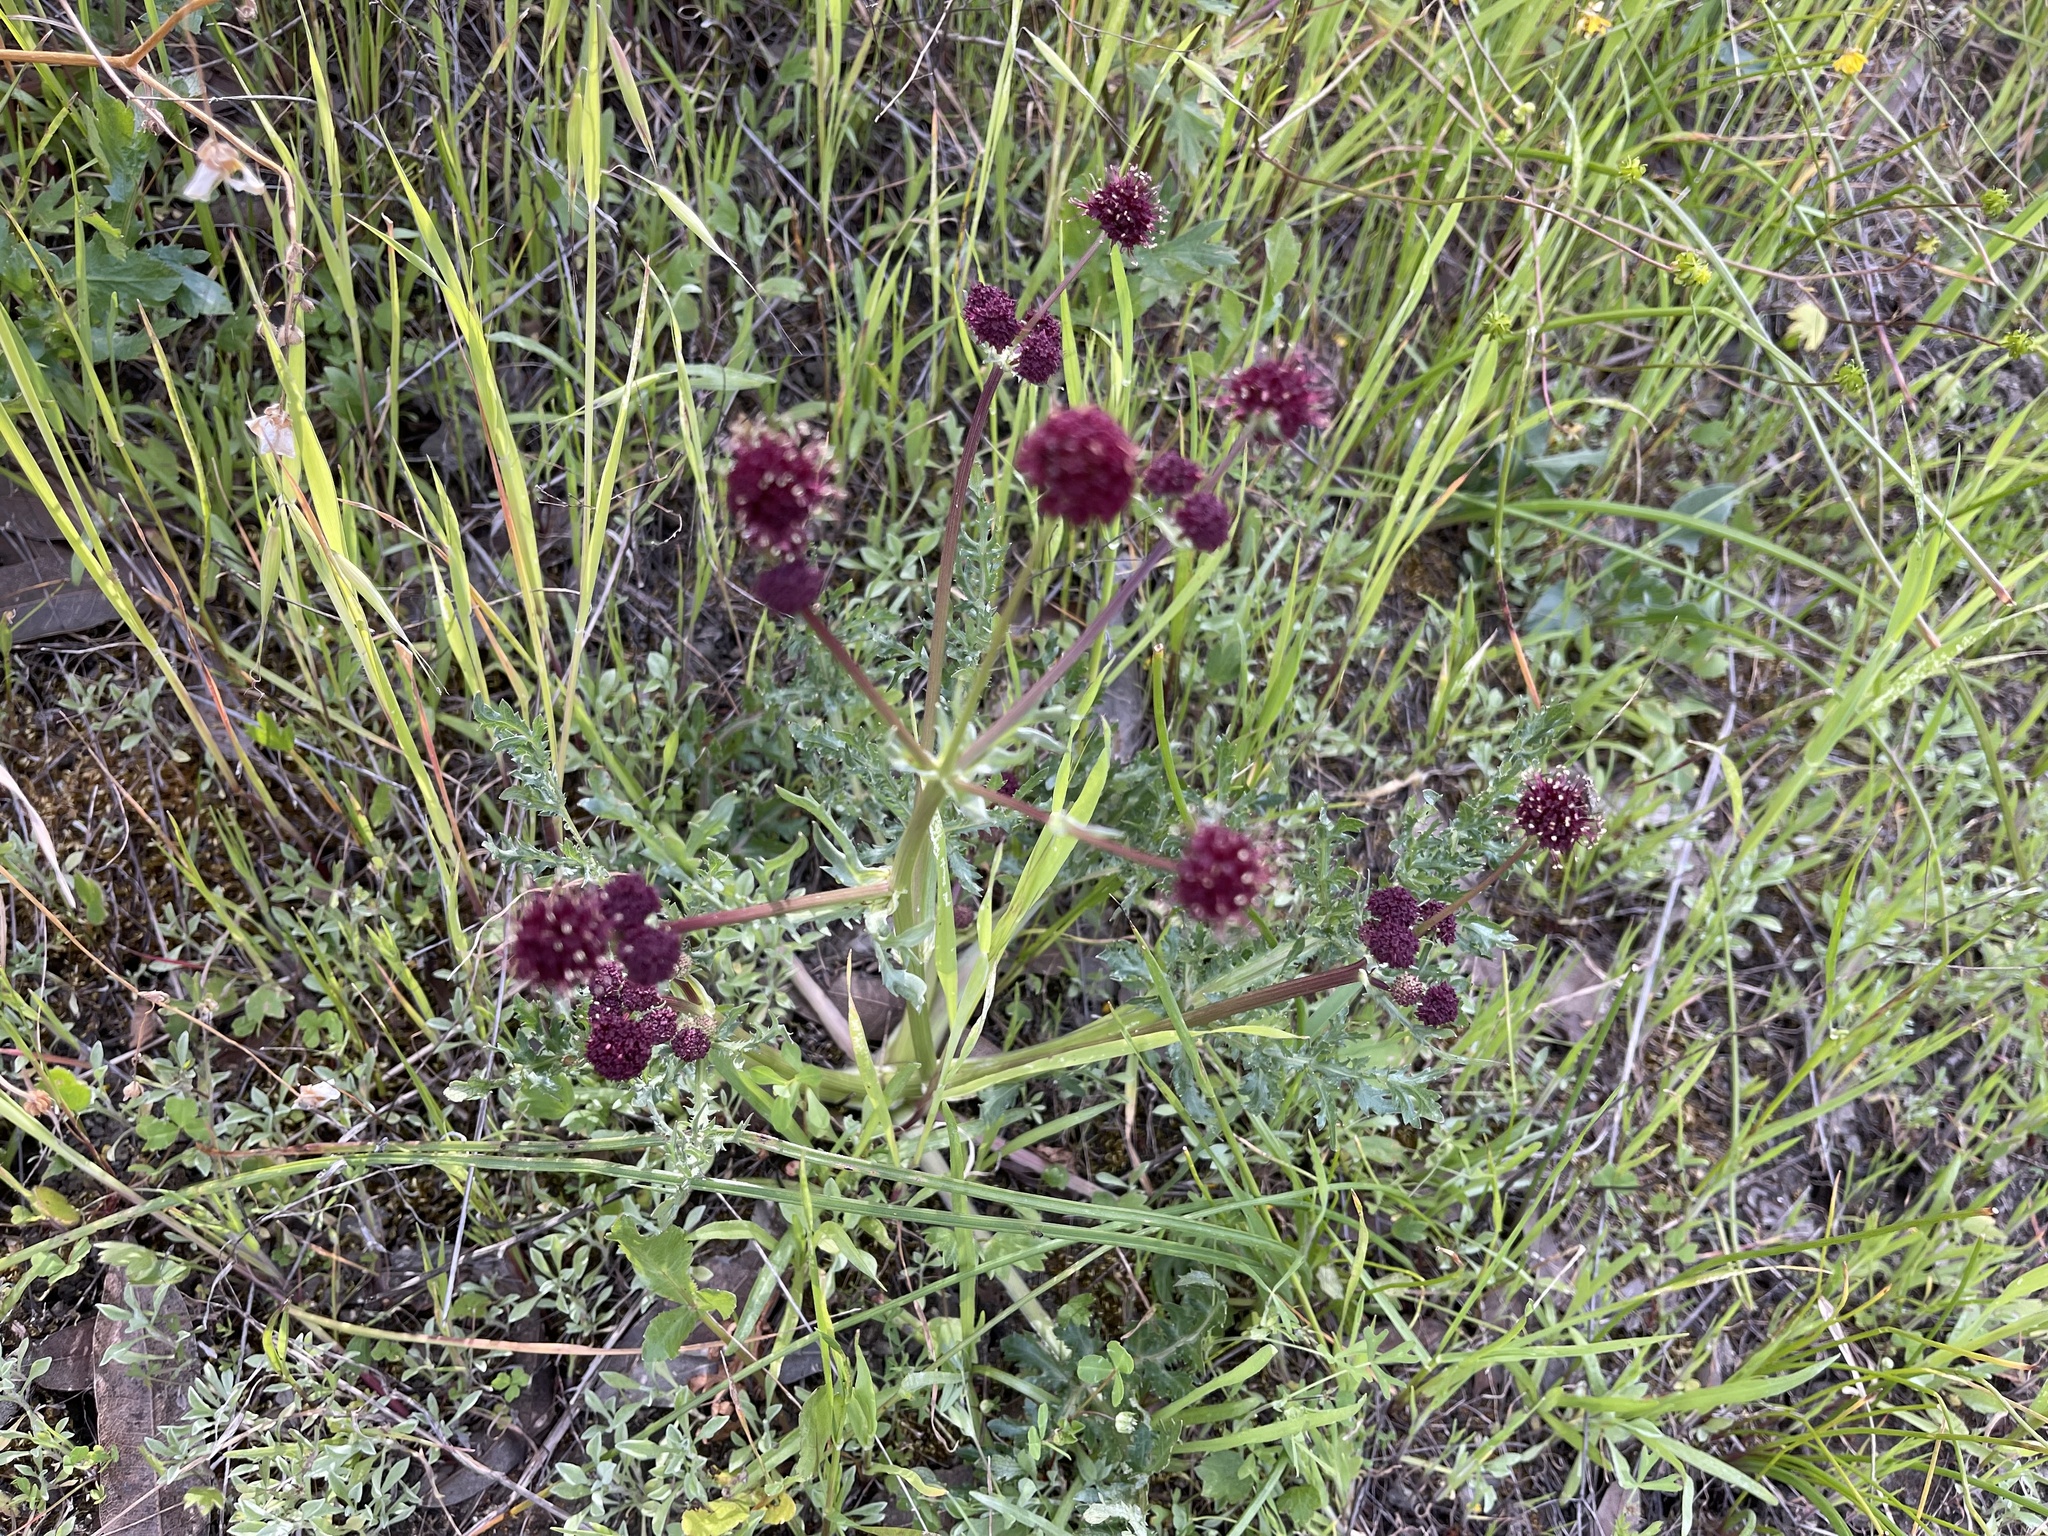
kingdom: Plantae
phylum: Tracheophyta
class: Magnoliopsida
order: Apiales
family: Apiaceae
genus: Sanicula
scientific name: Sanicula bipinnatifida
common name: Shoe-buttons
